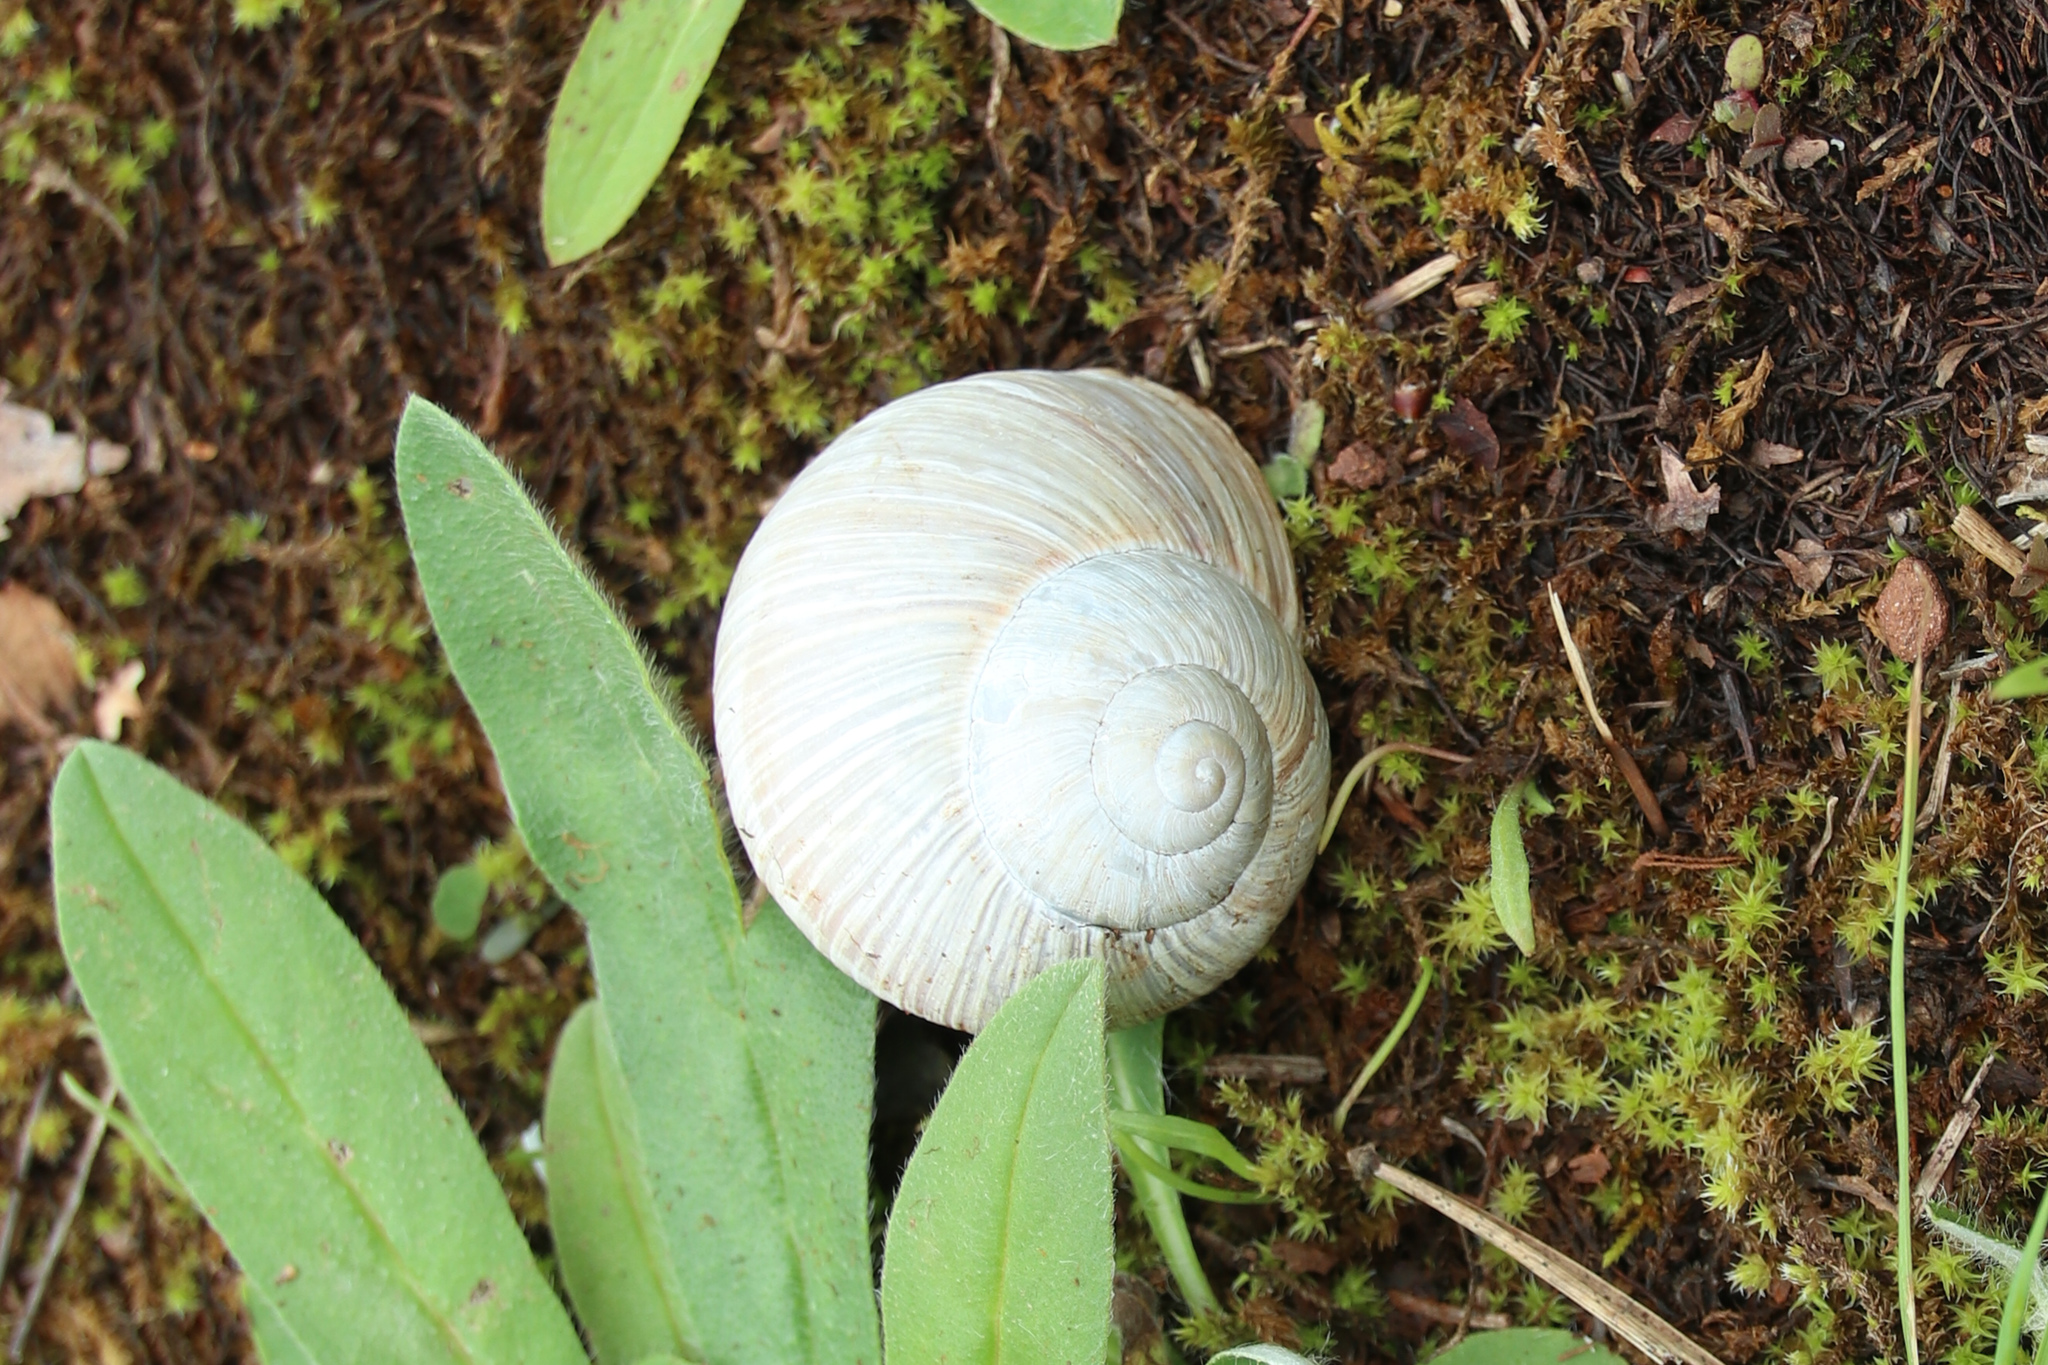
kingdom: Animalia
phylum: Mollusca
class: Gastropoda
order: Stylommatophora
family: Helicidae
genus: Helix
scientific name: Helix pomatia
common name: Roman snail
